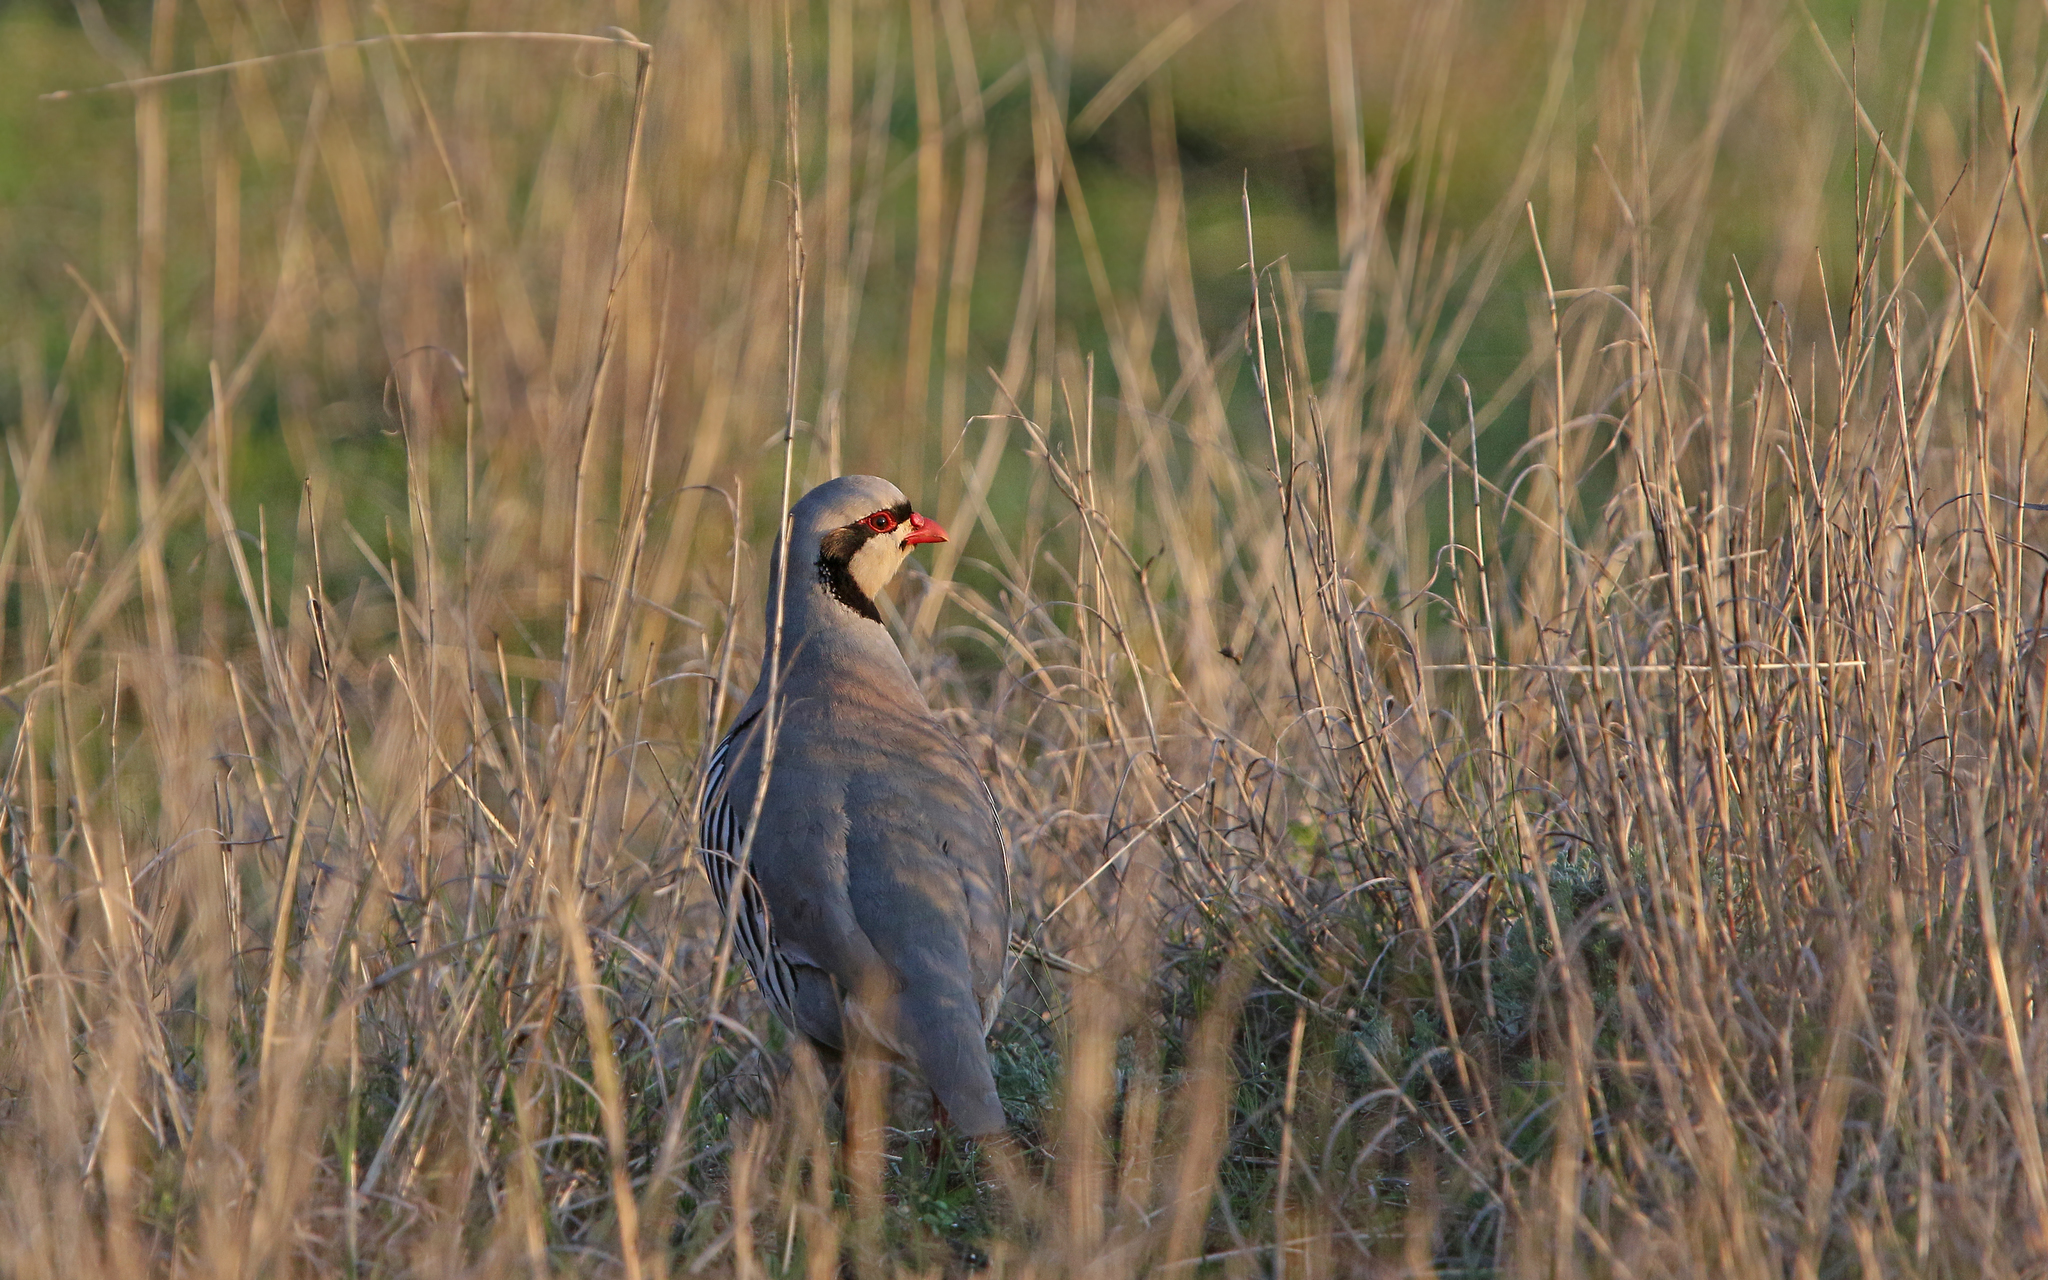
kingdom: Animalia
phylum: Chordata
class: Aves
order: Galliformes
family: Phasianidae
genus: Alectoris
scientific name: Alectoris chukar
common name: Chukar
